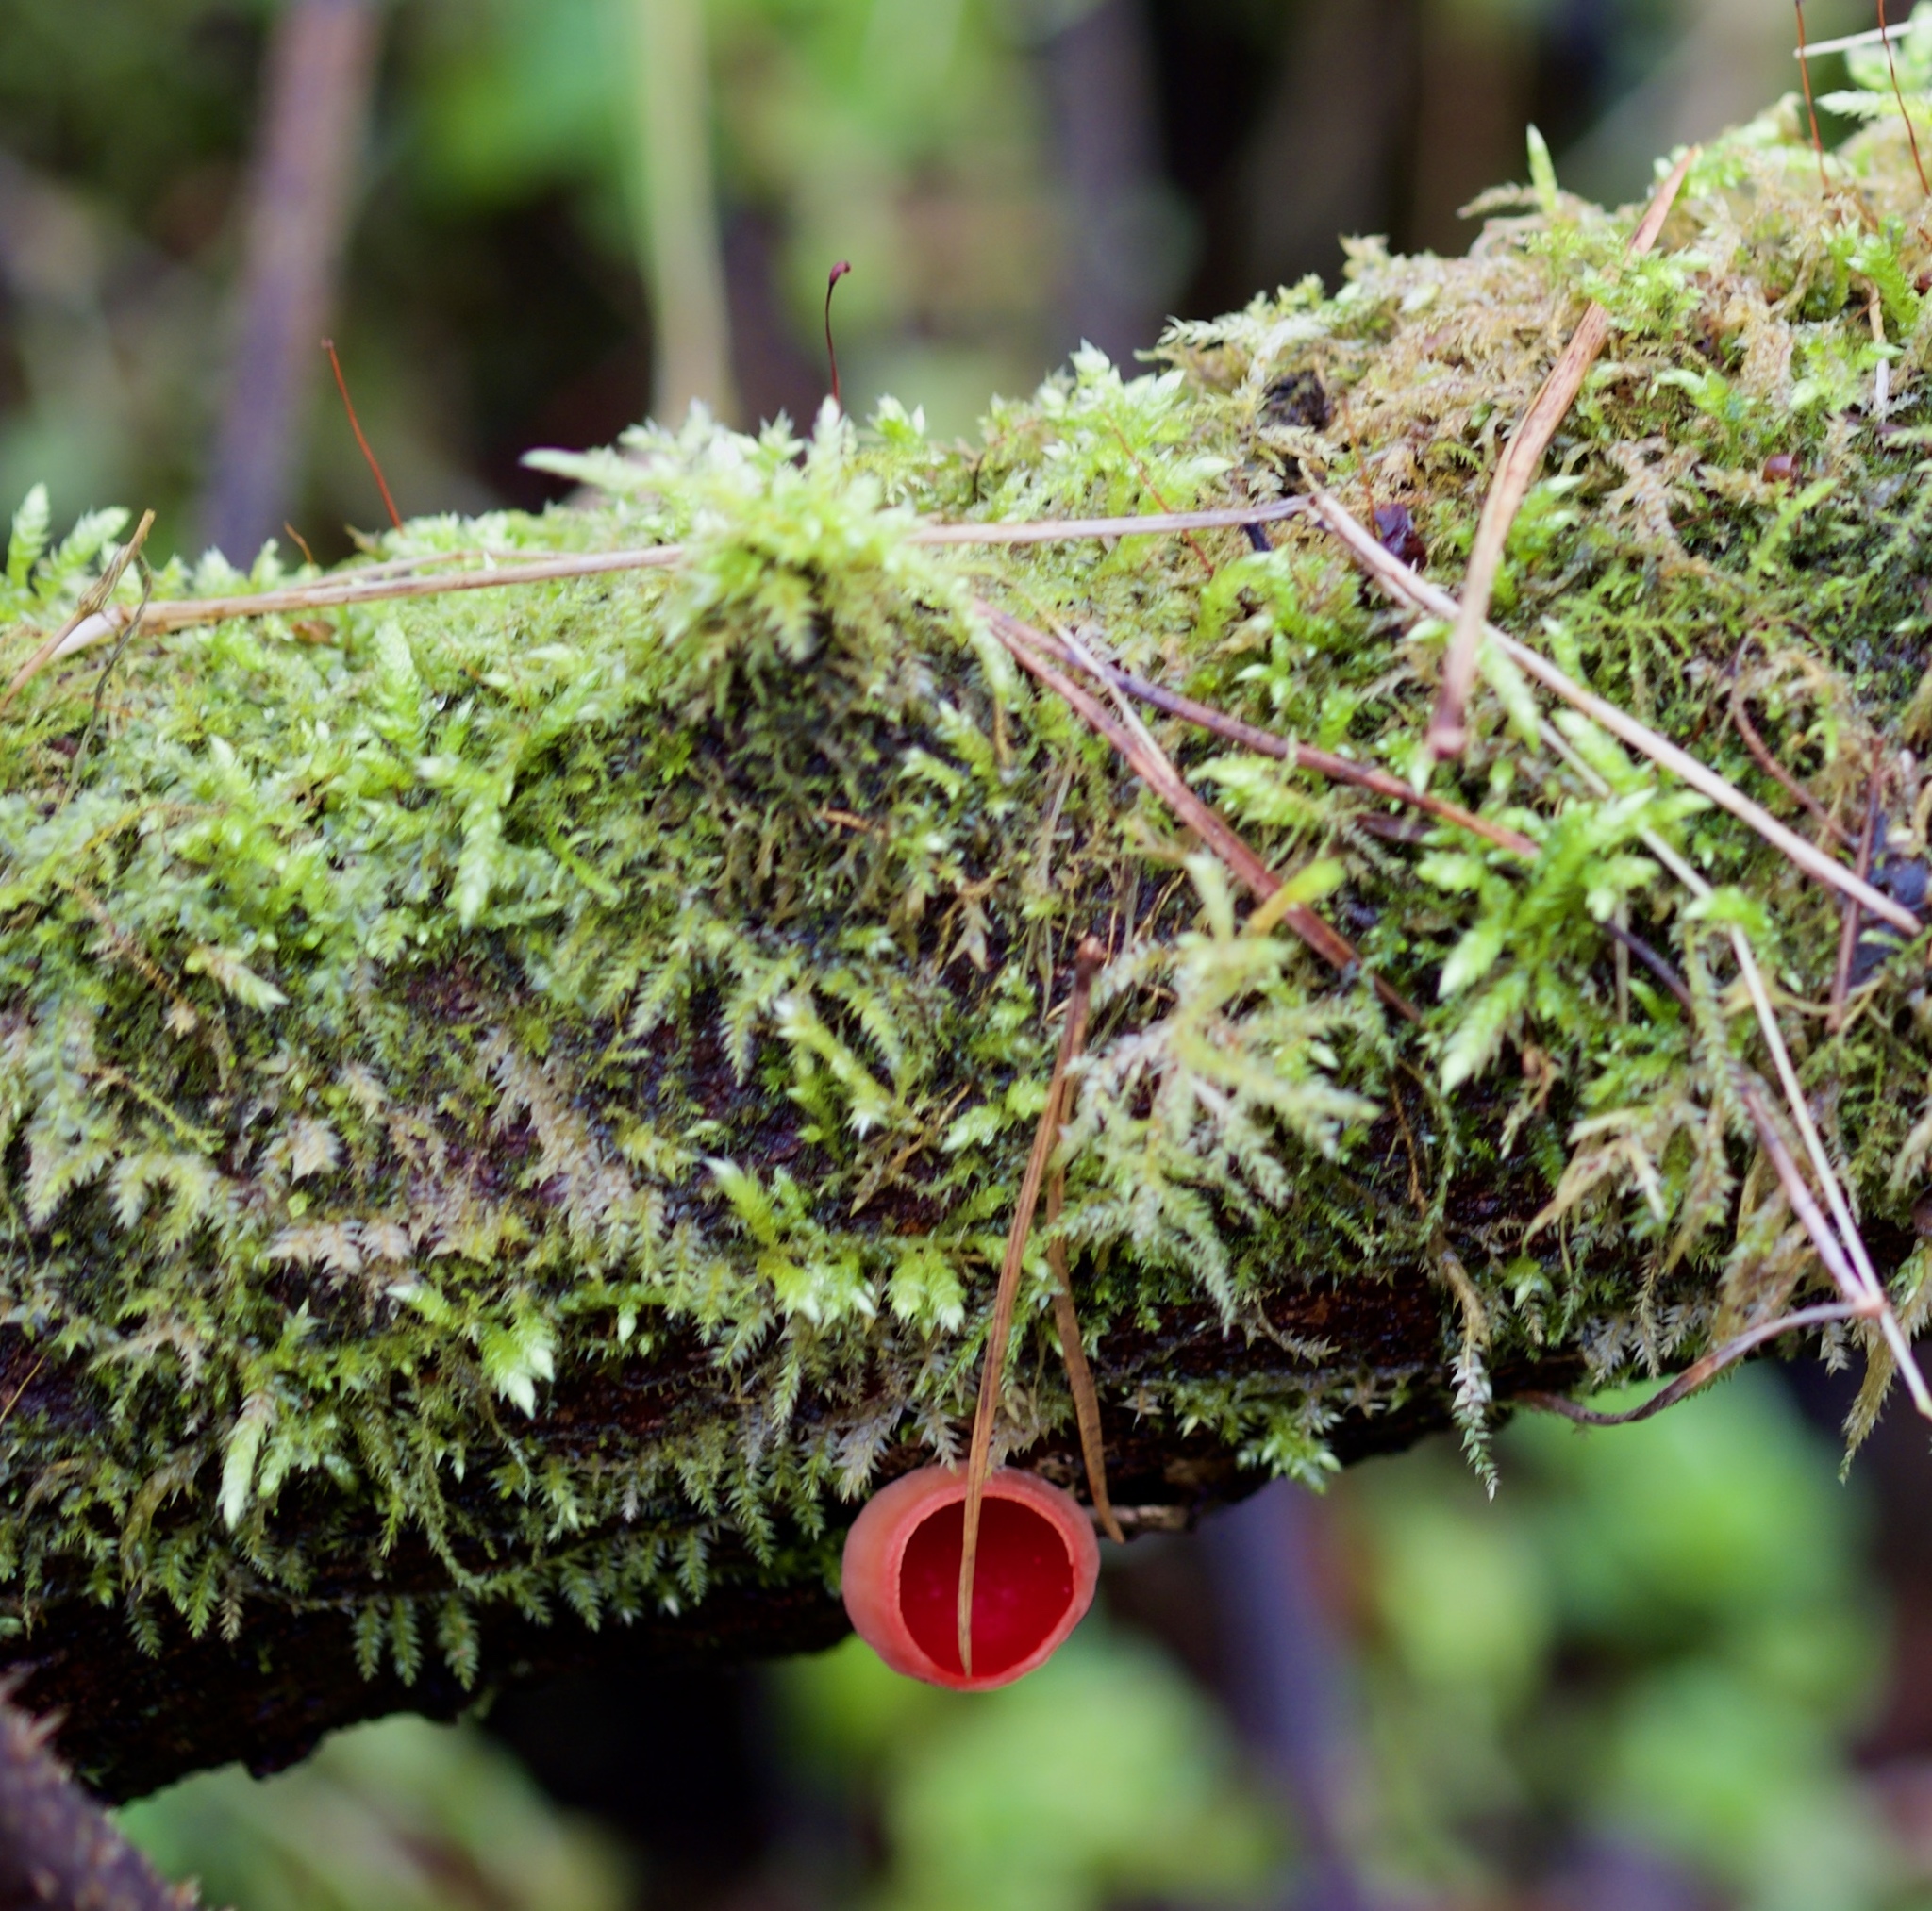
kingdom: Fungi
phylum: Ascomycota
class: Pezizomycetes
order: Pezizales
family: Sarcoscyphaceae
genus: Sarcoscypha
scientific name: Sarcoscypha
